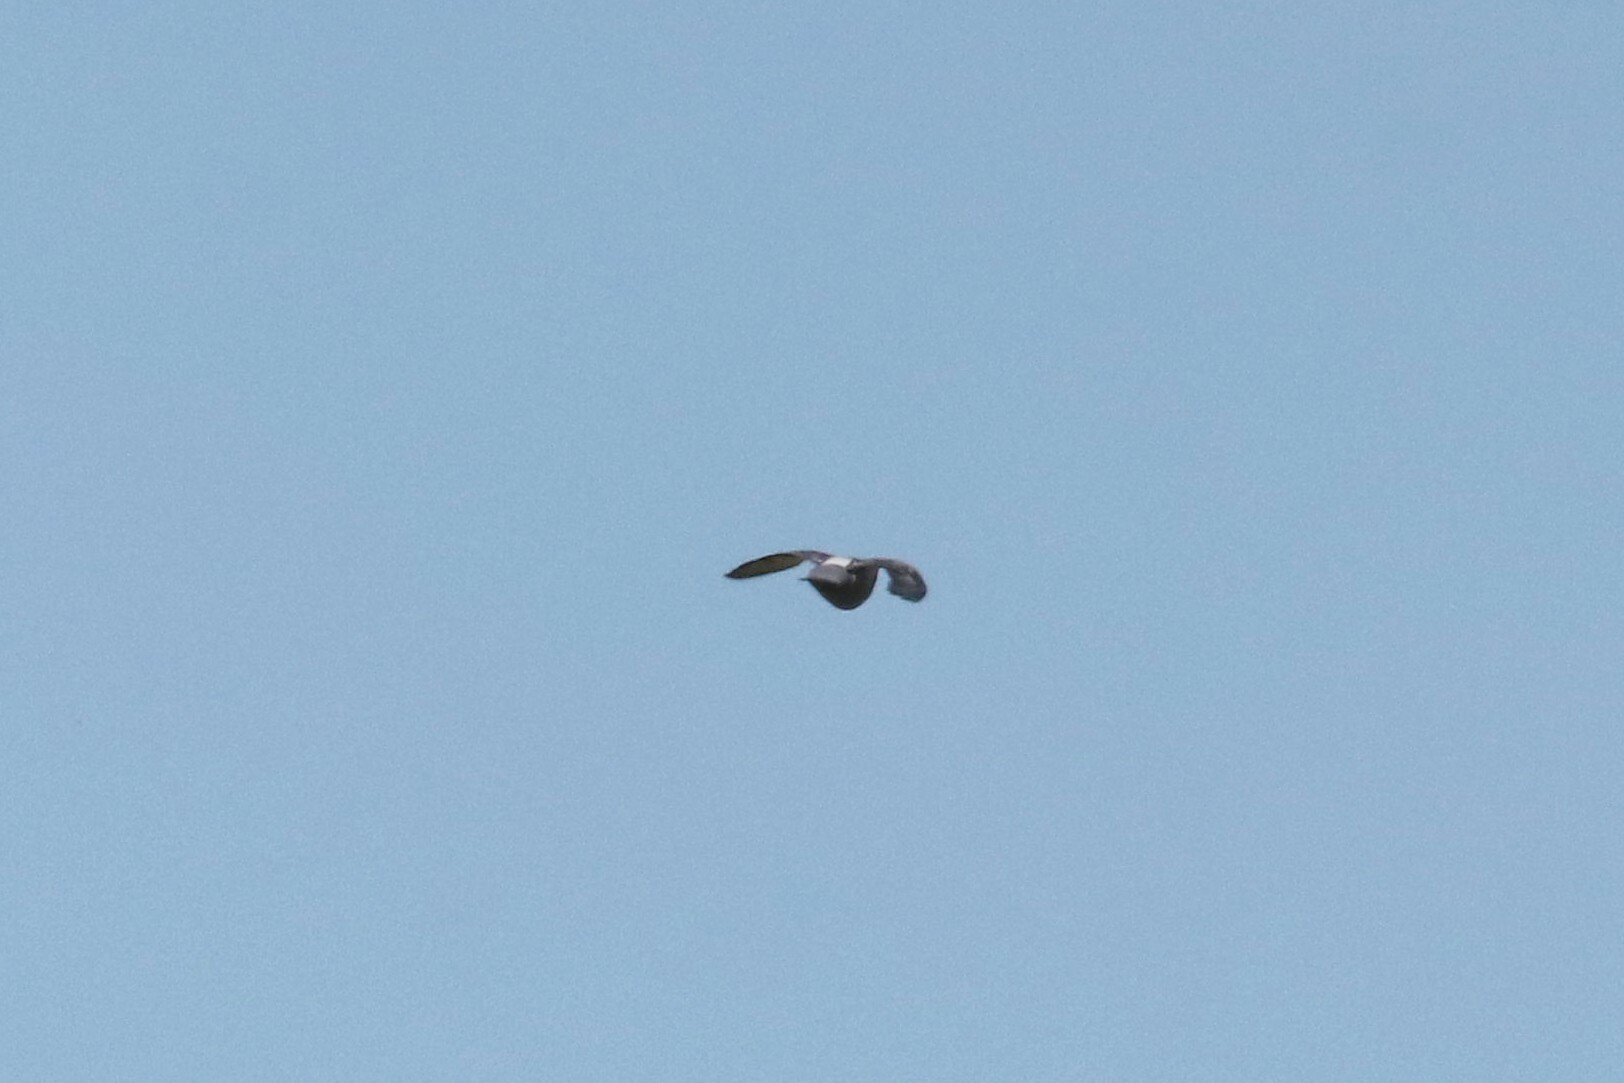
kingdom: Animalia
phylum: Chordata
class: Aves
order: Columbiformes
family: Columbidae
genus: Columba
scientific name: Columba livia
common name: Rock pigeon
